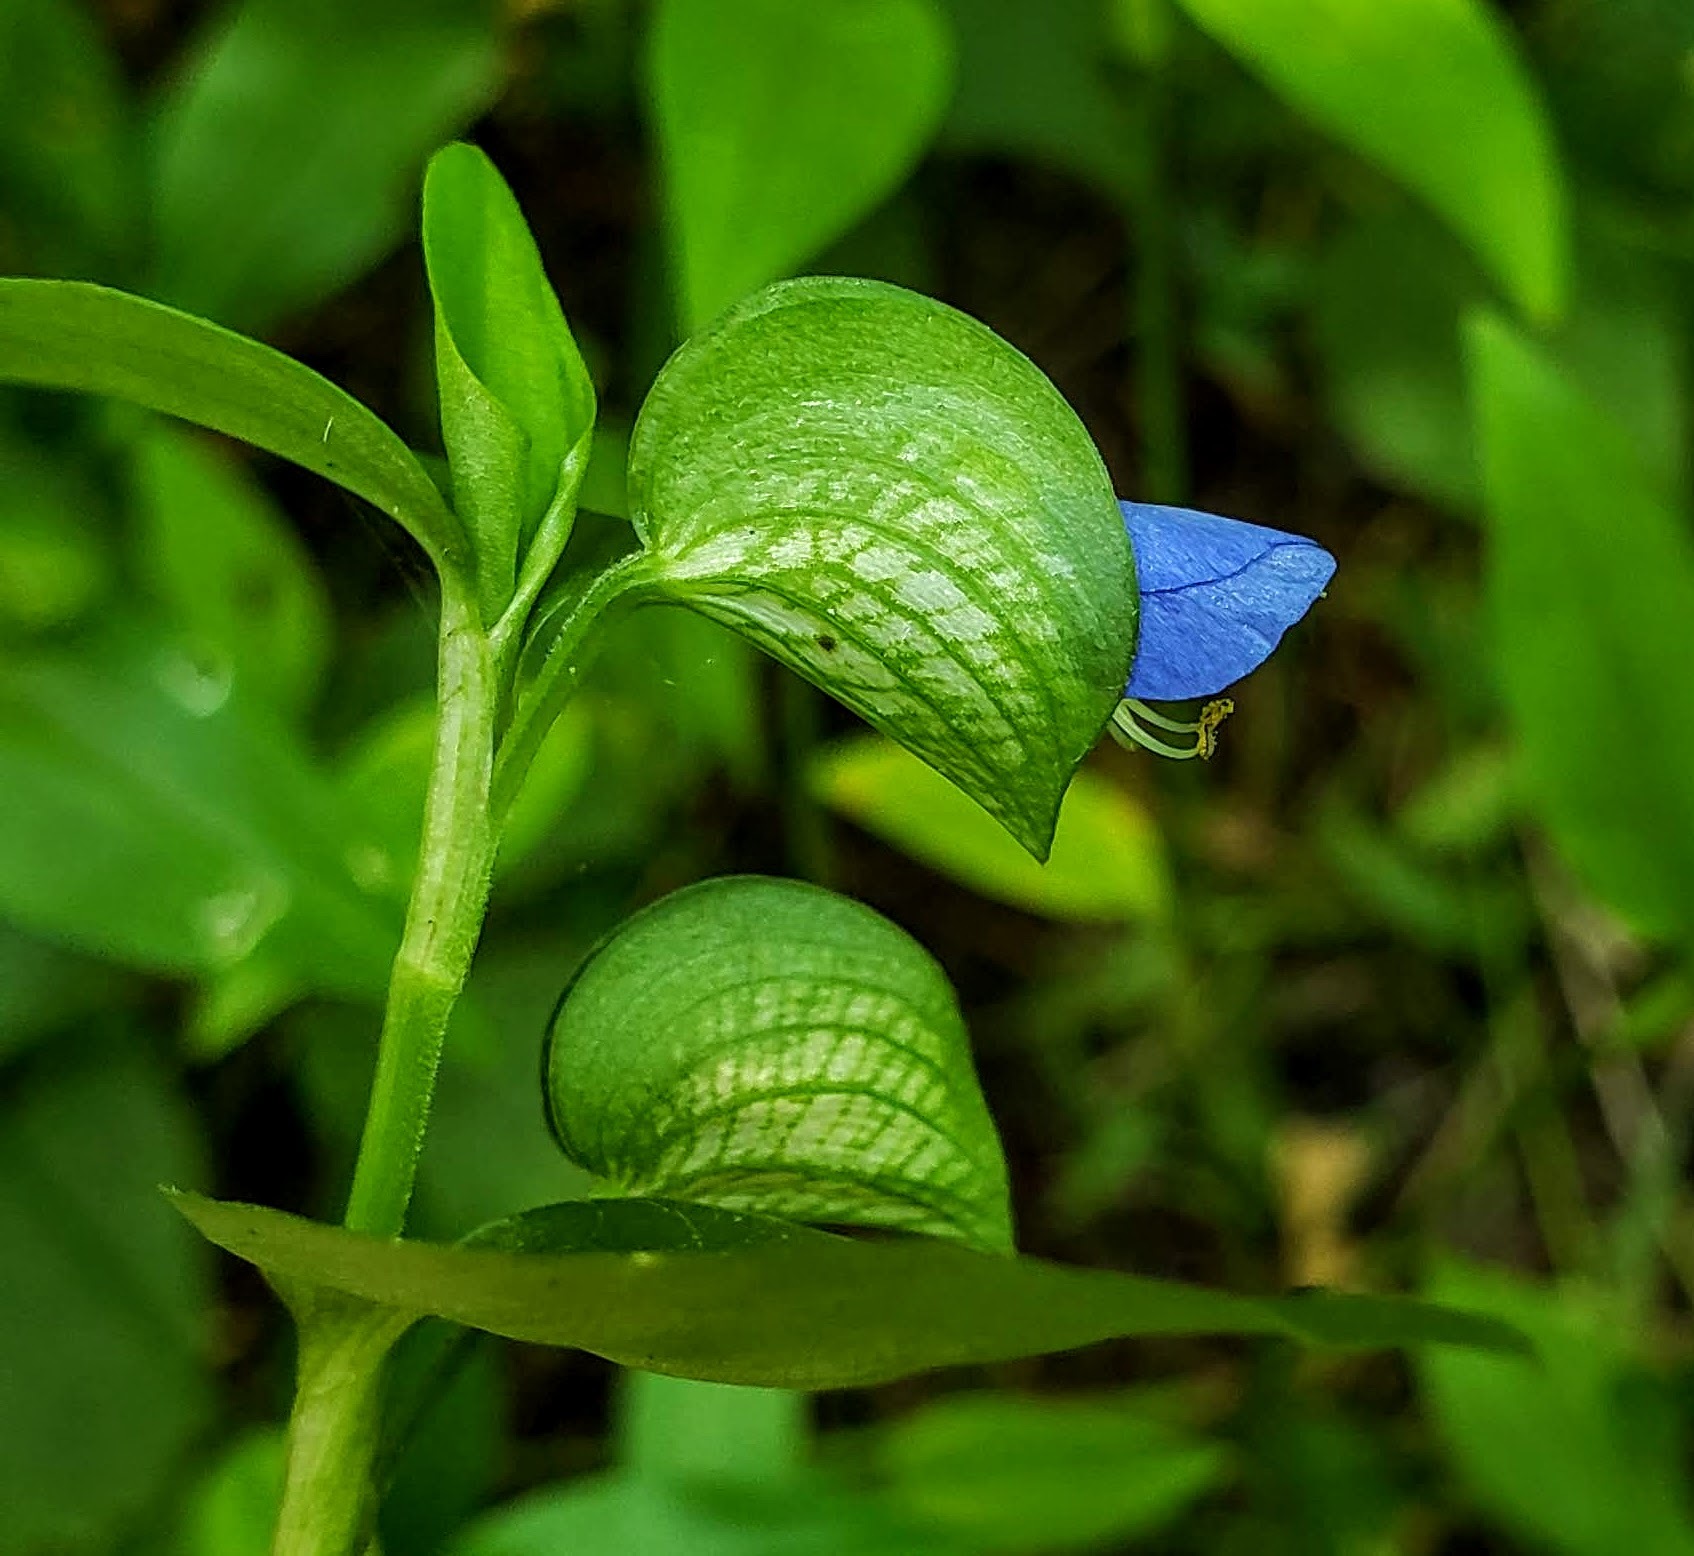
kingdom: Plantae
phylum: Tracheophyta
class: Liliopsida
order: Commelinales
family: Commelinaceae
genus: Commelina
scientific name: Commelina communis
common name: Asiatic dayflower
